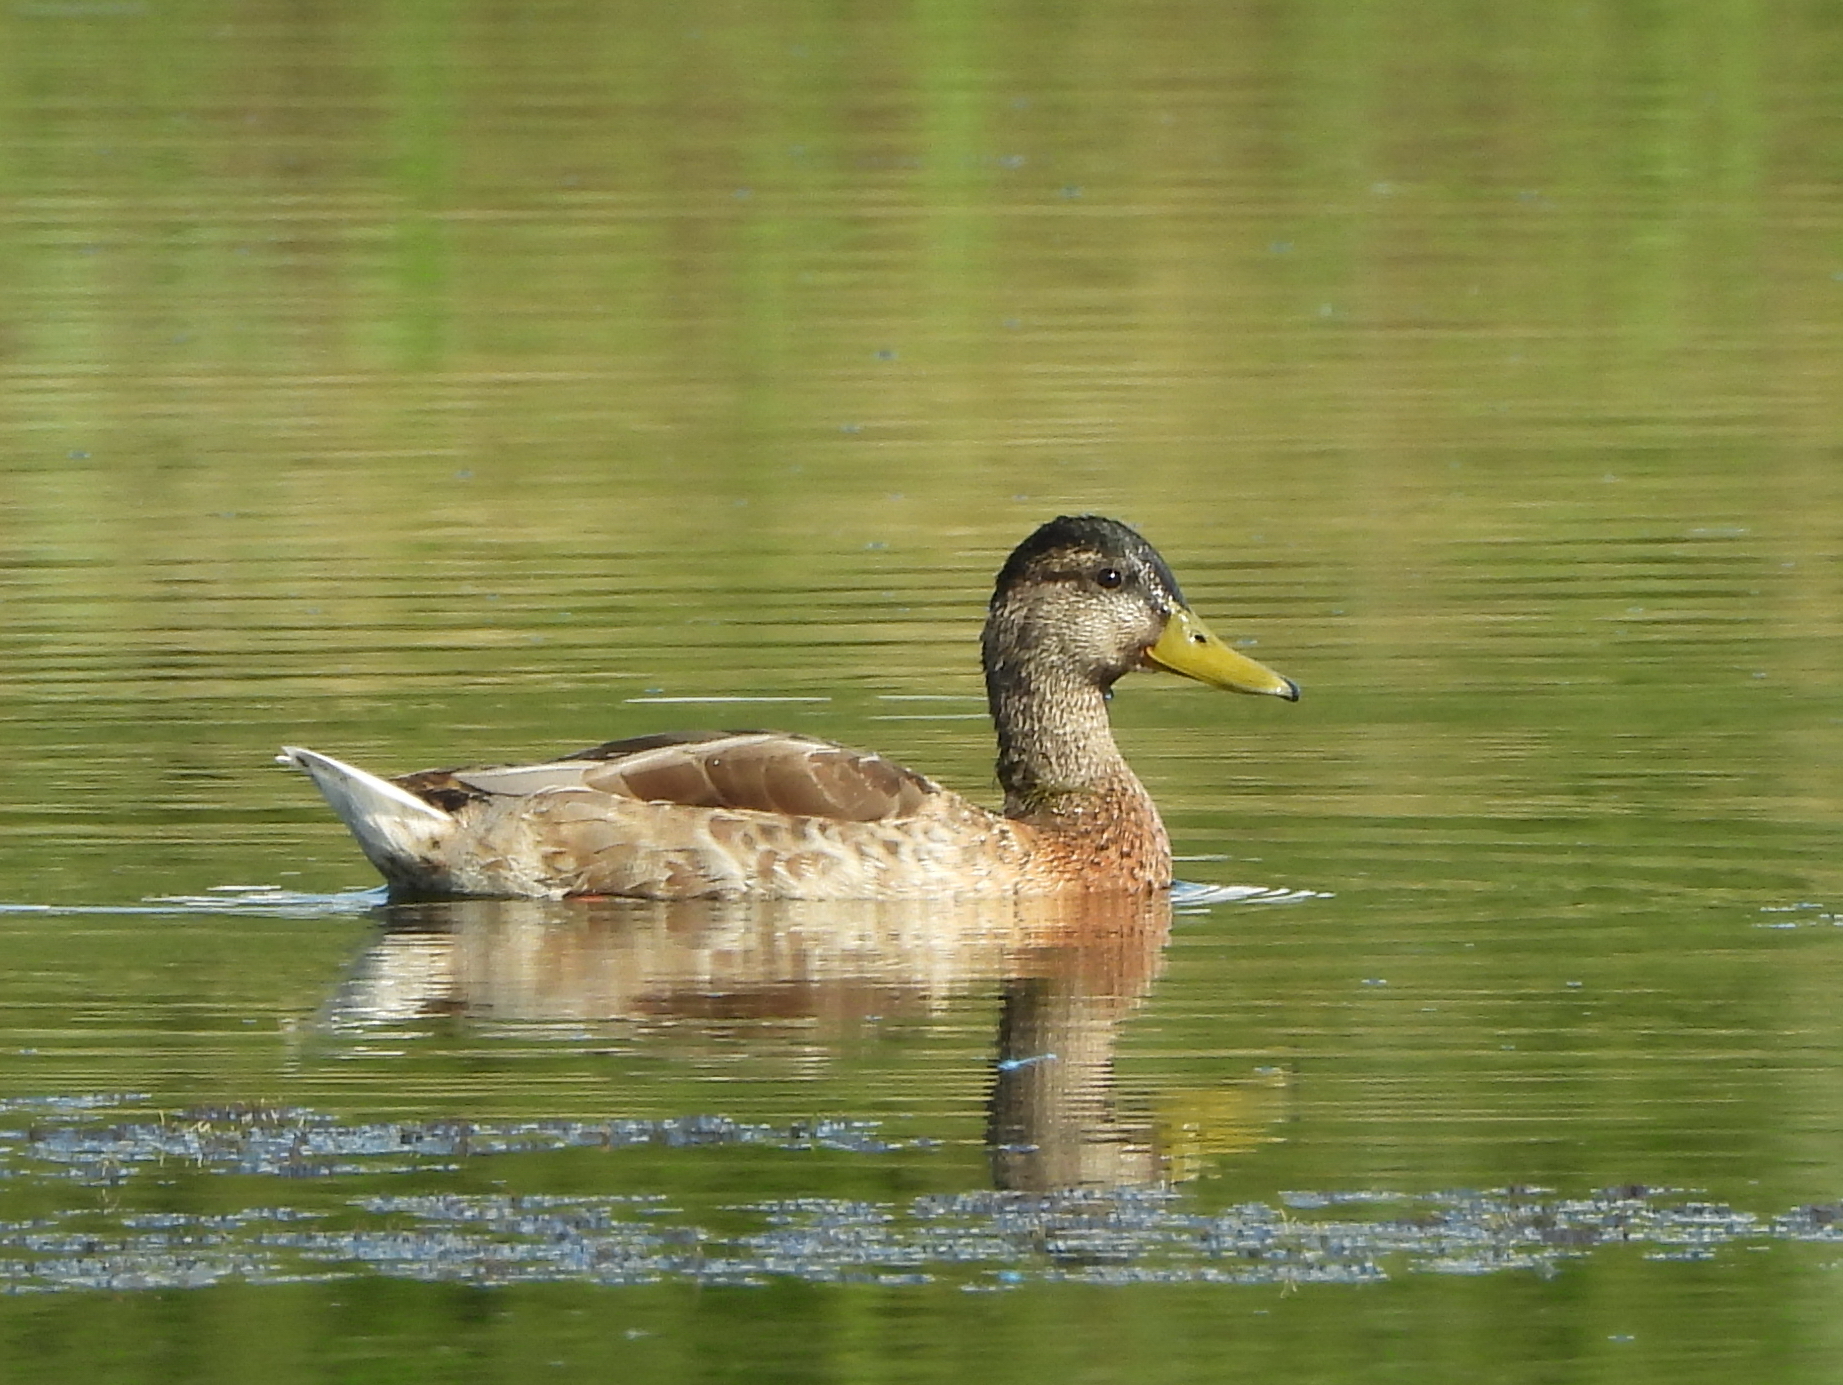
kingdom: Animalia
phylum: Chordata
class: Aves
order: Anseriformes
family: Anatidae
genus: Anas
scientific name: Anas platyrhynchos
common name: Mallard
